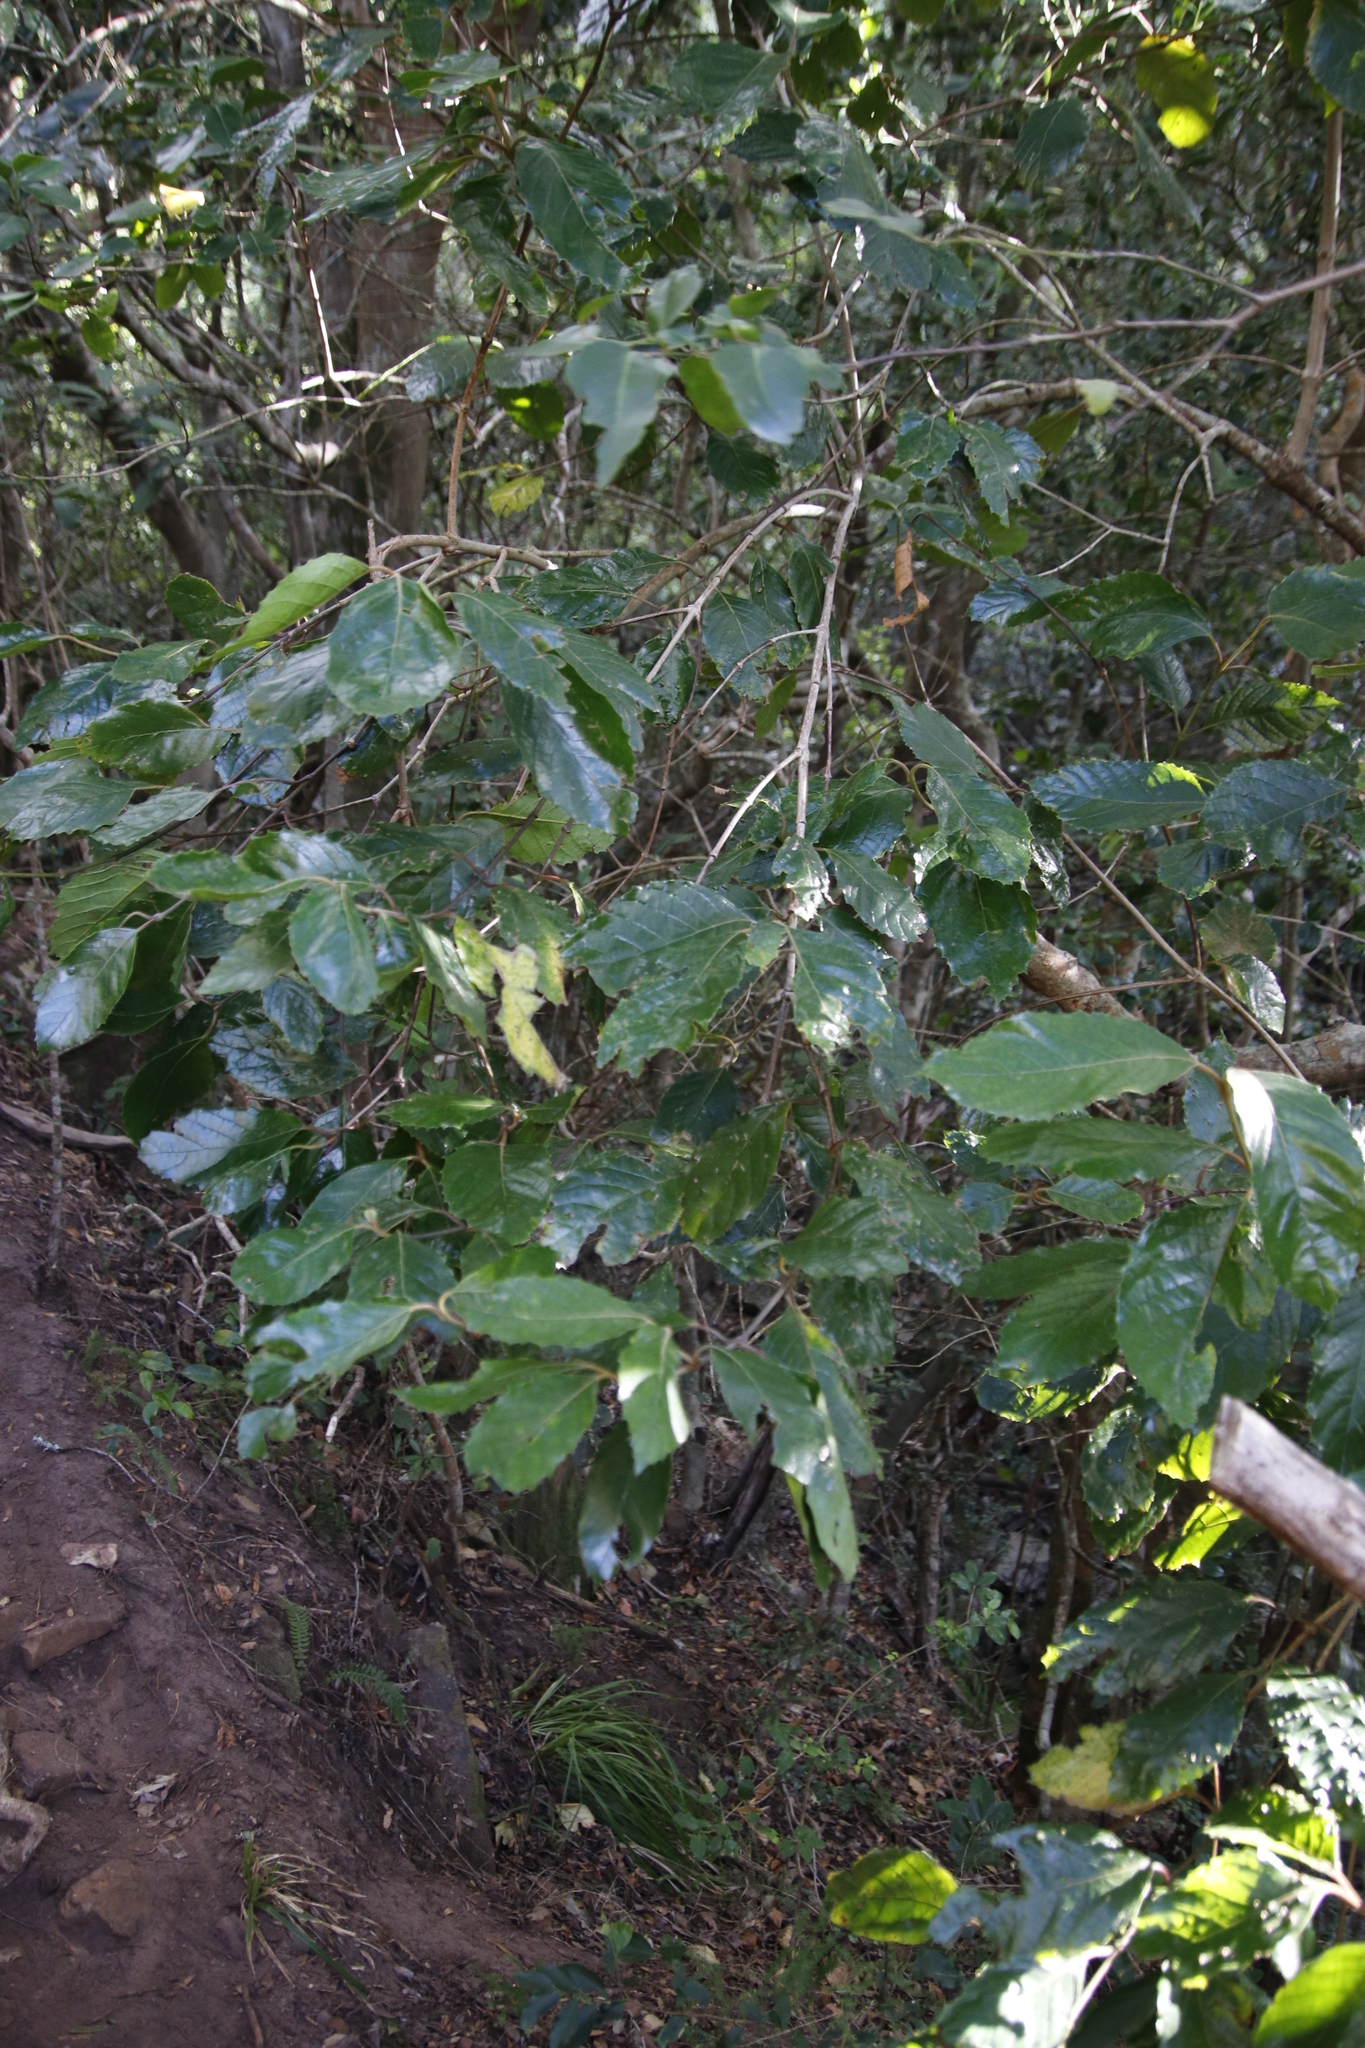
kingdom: Plantae
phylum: Tracheophyta
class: Magnoliopsida
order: Cornales
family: Curtisiaceae
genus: Curtisia
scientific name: Curtisia dentata
